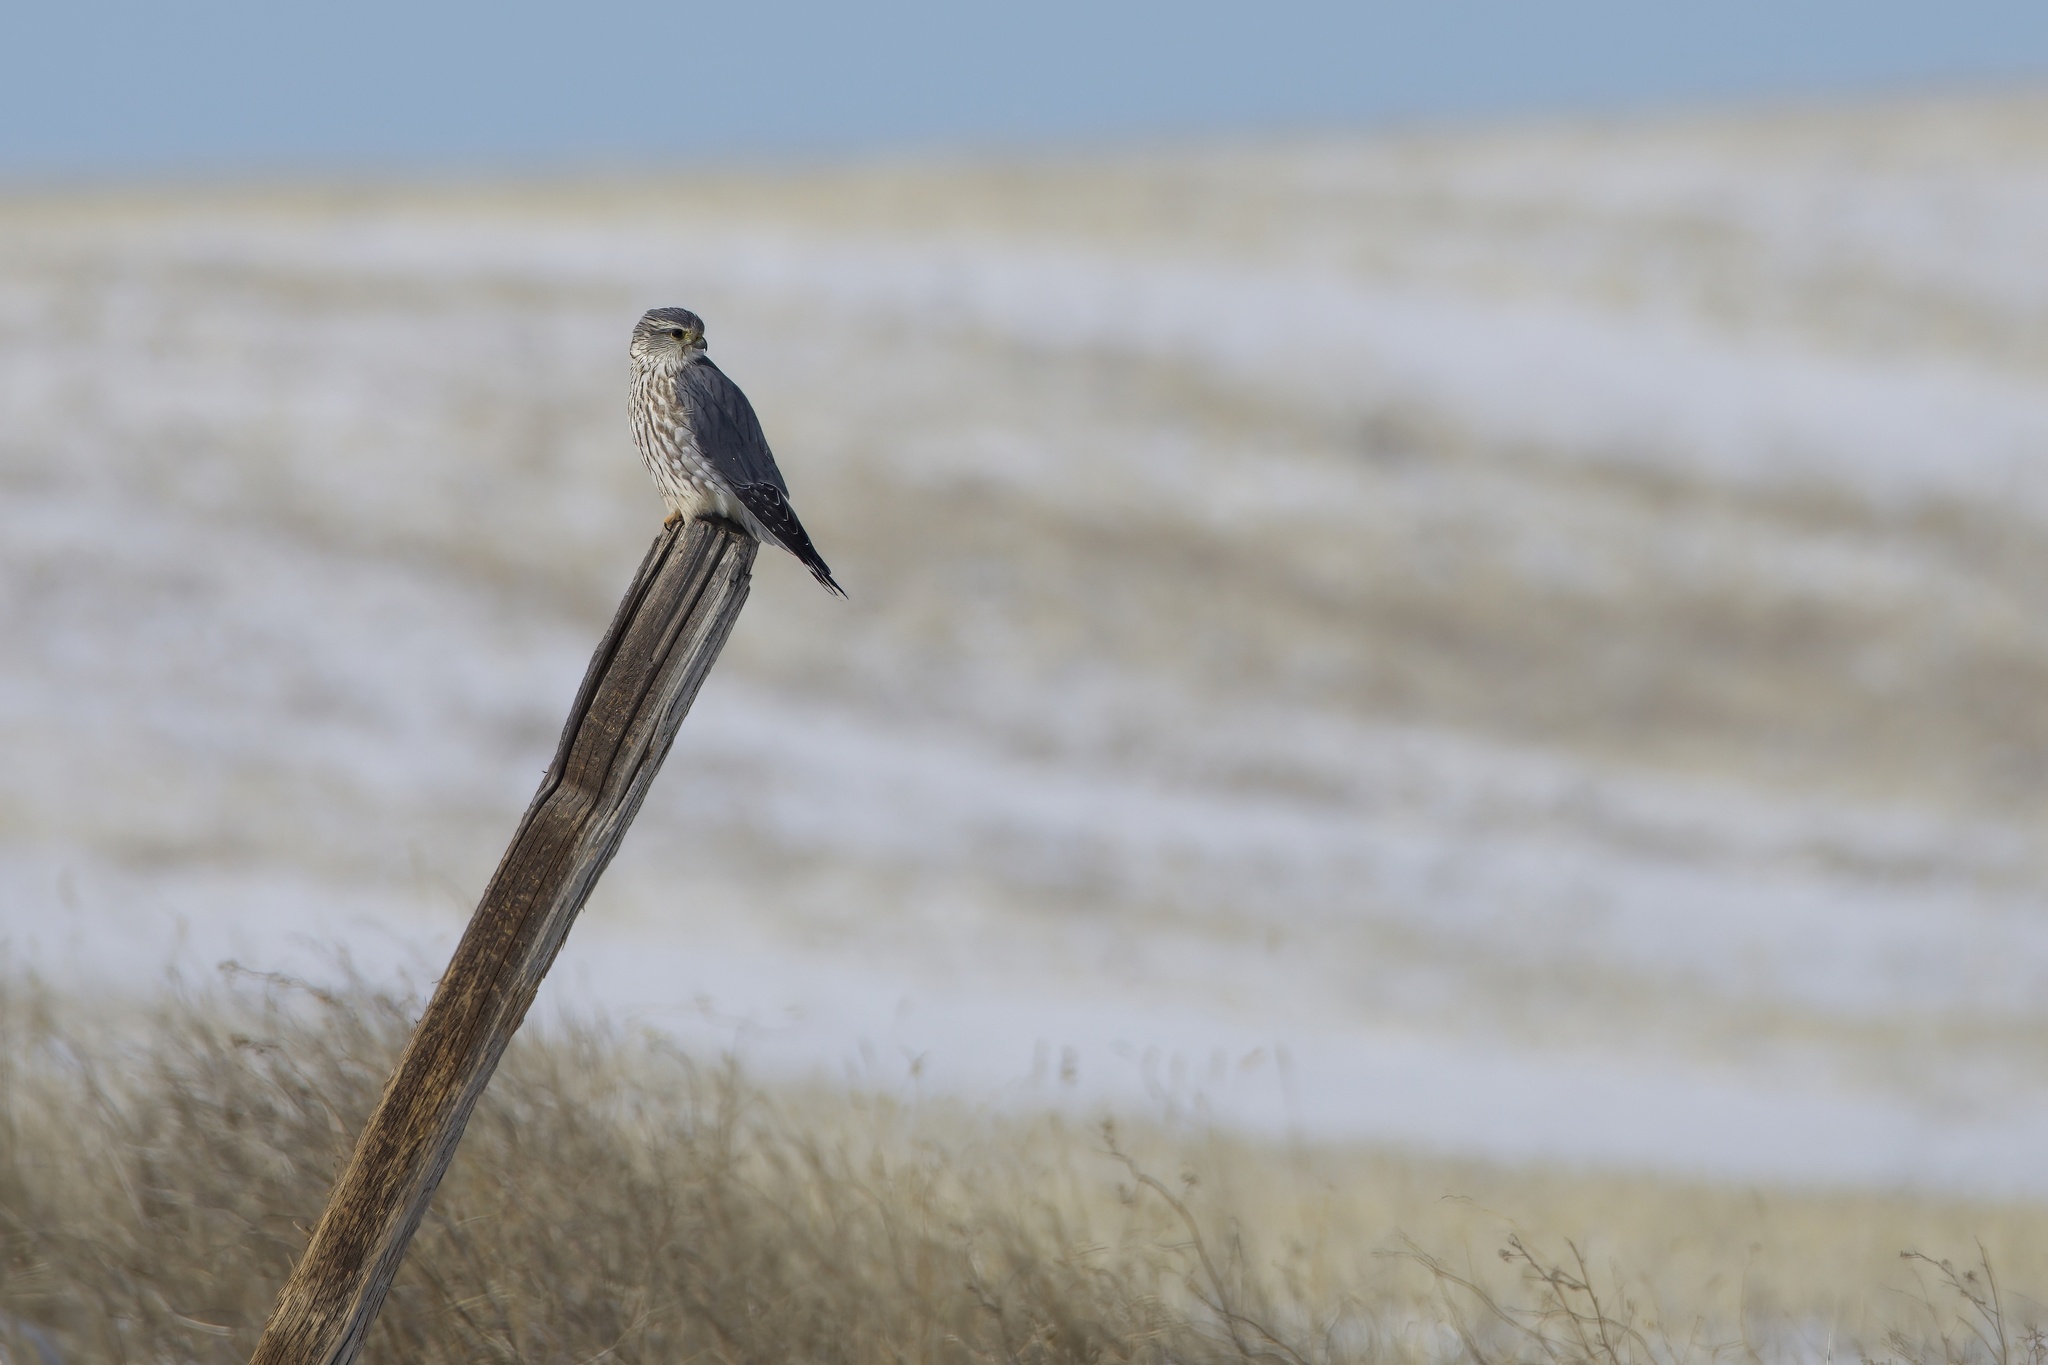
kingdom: Animalia
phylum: Chordata
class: Aves
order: Falconiformes
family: Falconidae
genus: Falco
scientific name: Falco columbarius
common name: Merlin
